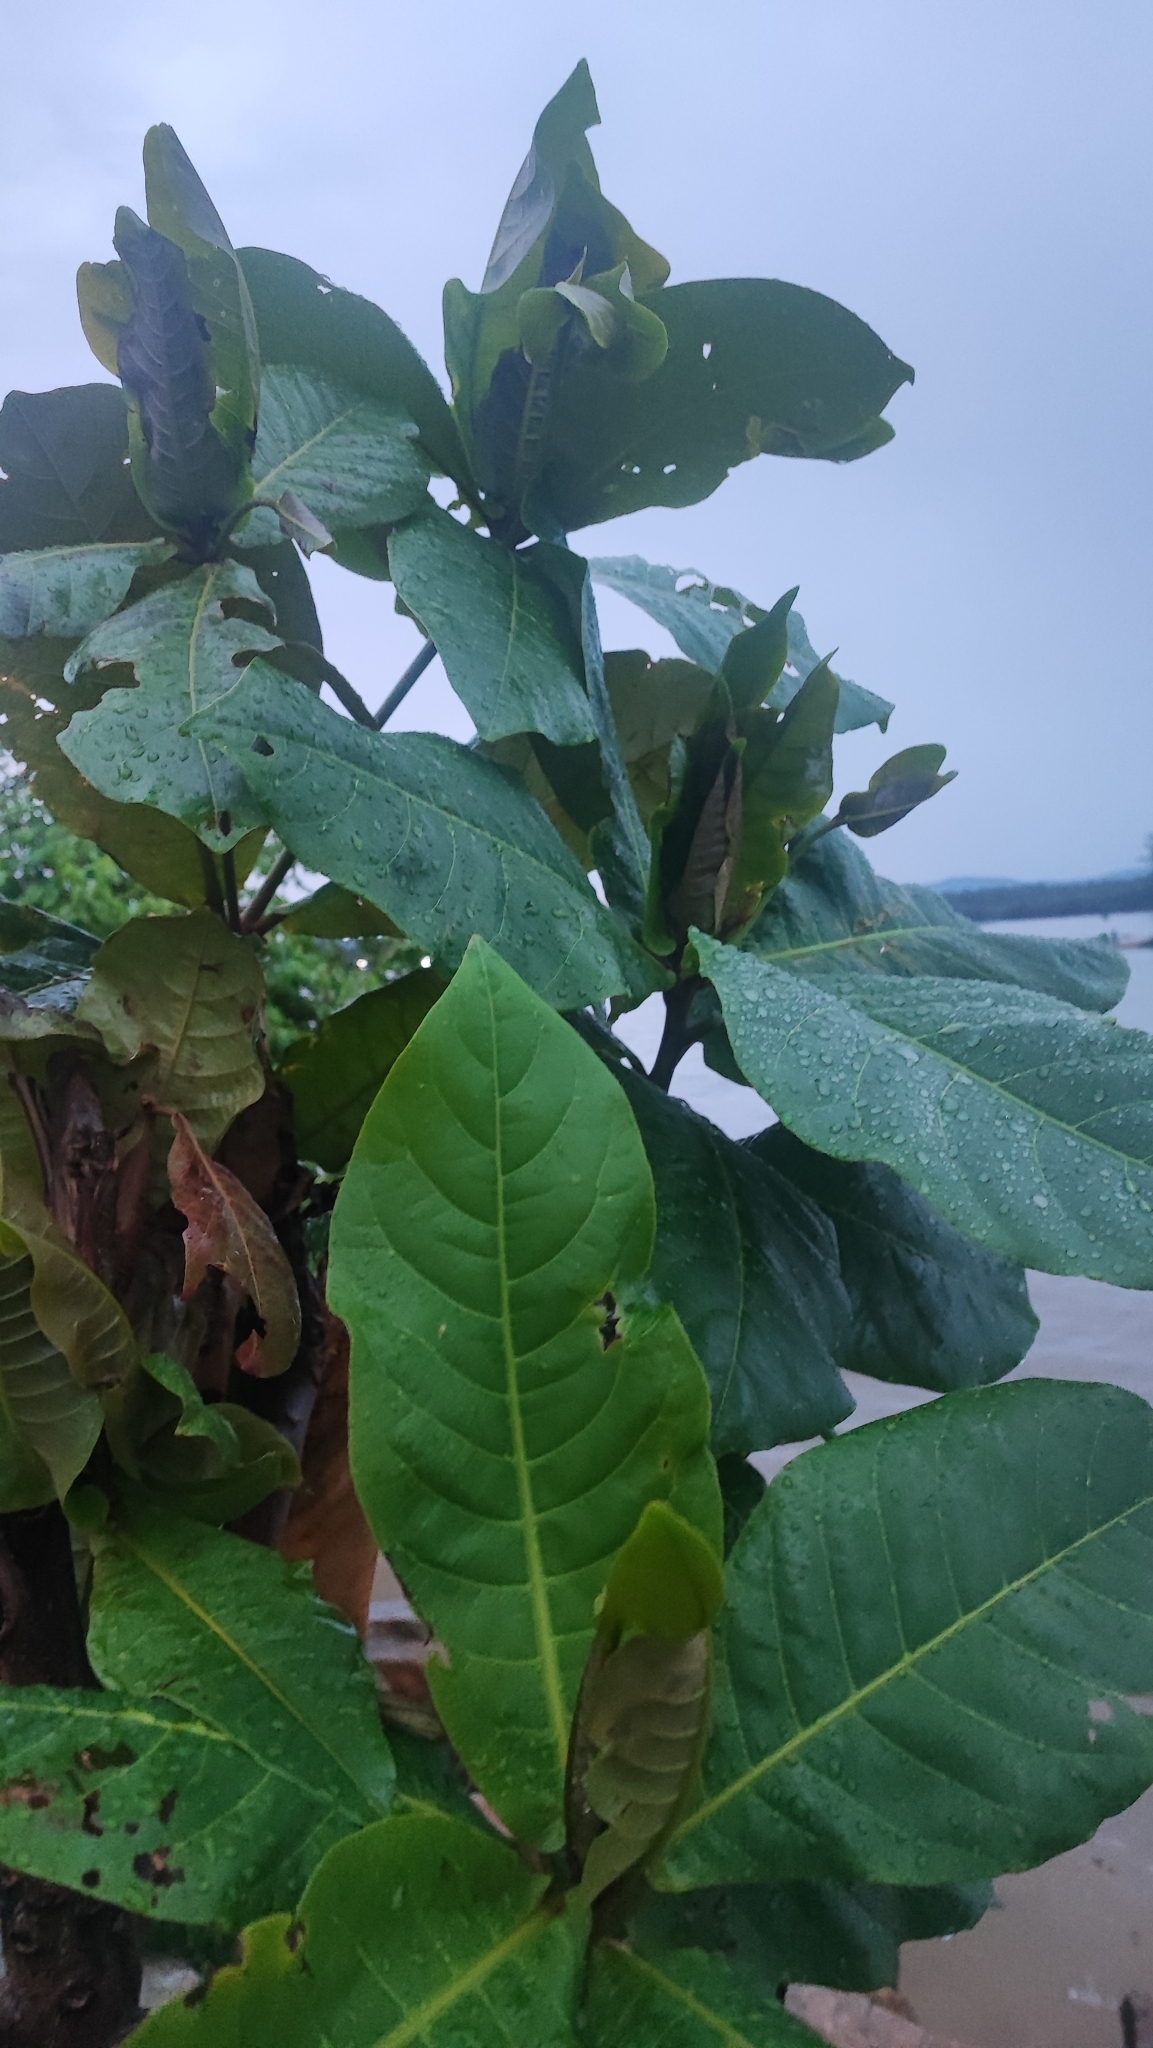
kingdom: Plantae
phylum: Tracheophyta
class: Magnoliopsida
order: Myrtales
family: Combretaceae
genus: Terminalia
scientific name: Terminalia catappa
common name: Tropical almond
